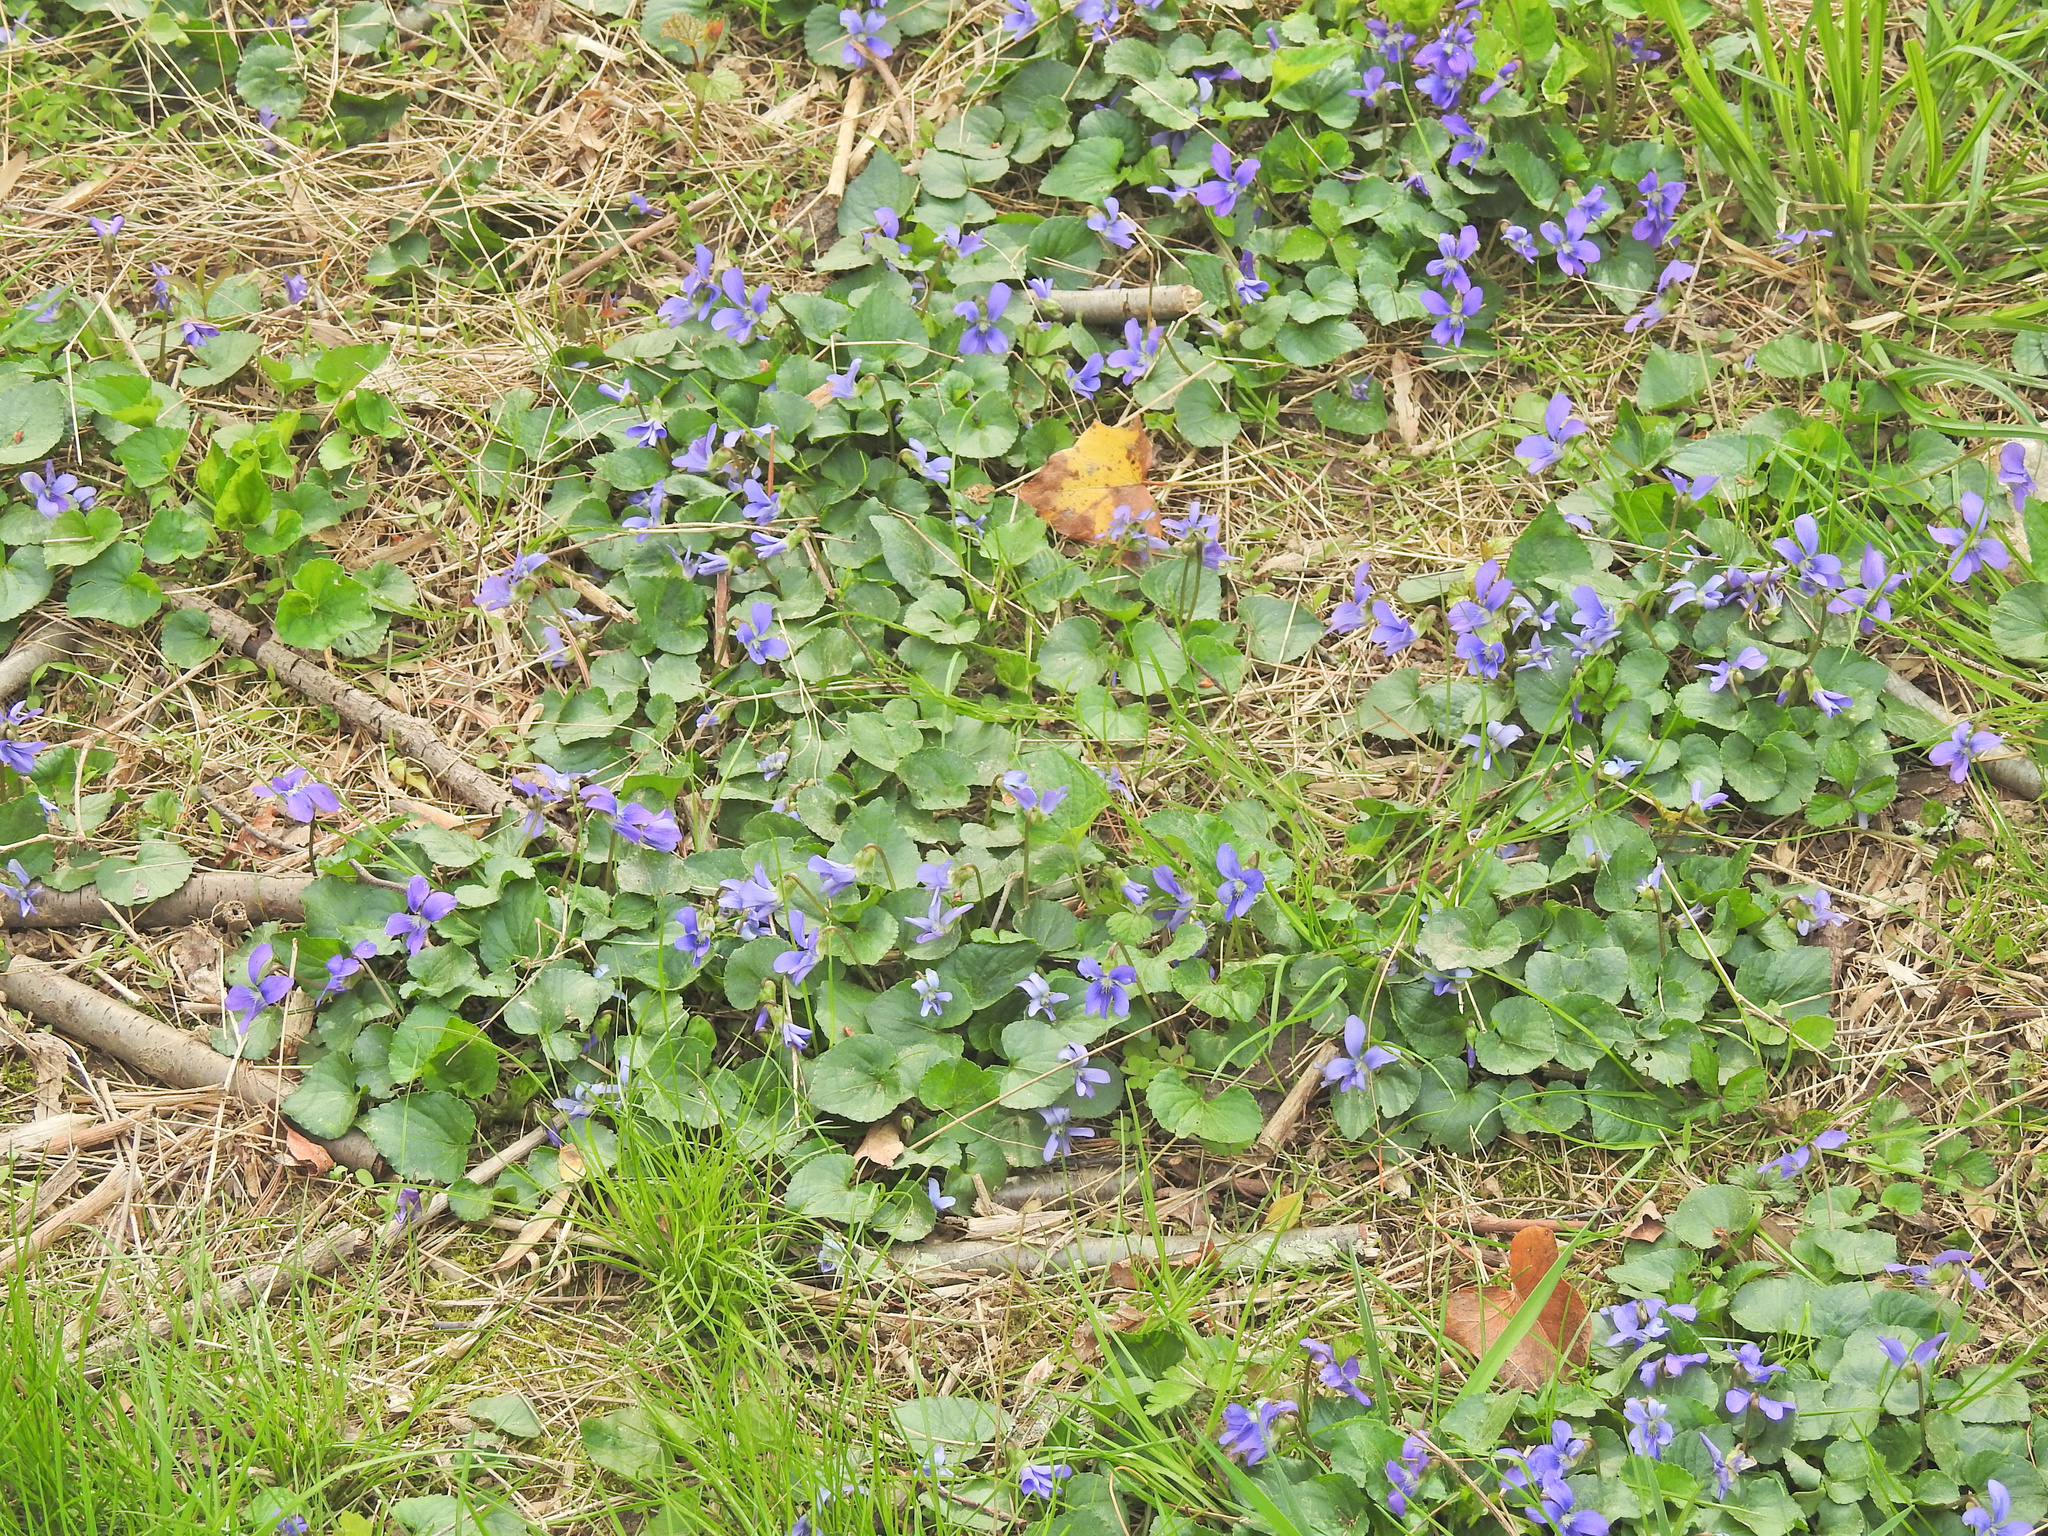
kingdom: Plantae
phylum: Tracheophyta
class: Magnoliopsida
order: Malpighiales
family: Violaceae
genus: Viola
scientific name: Viola sororia
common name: Dooryard violet
